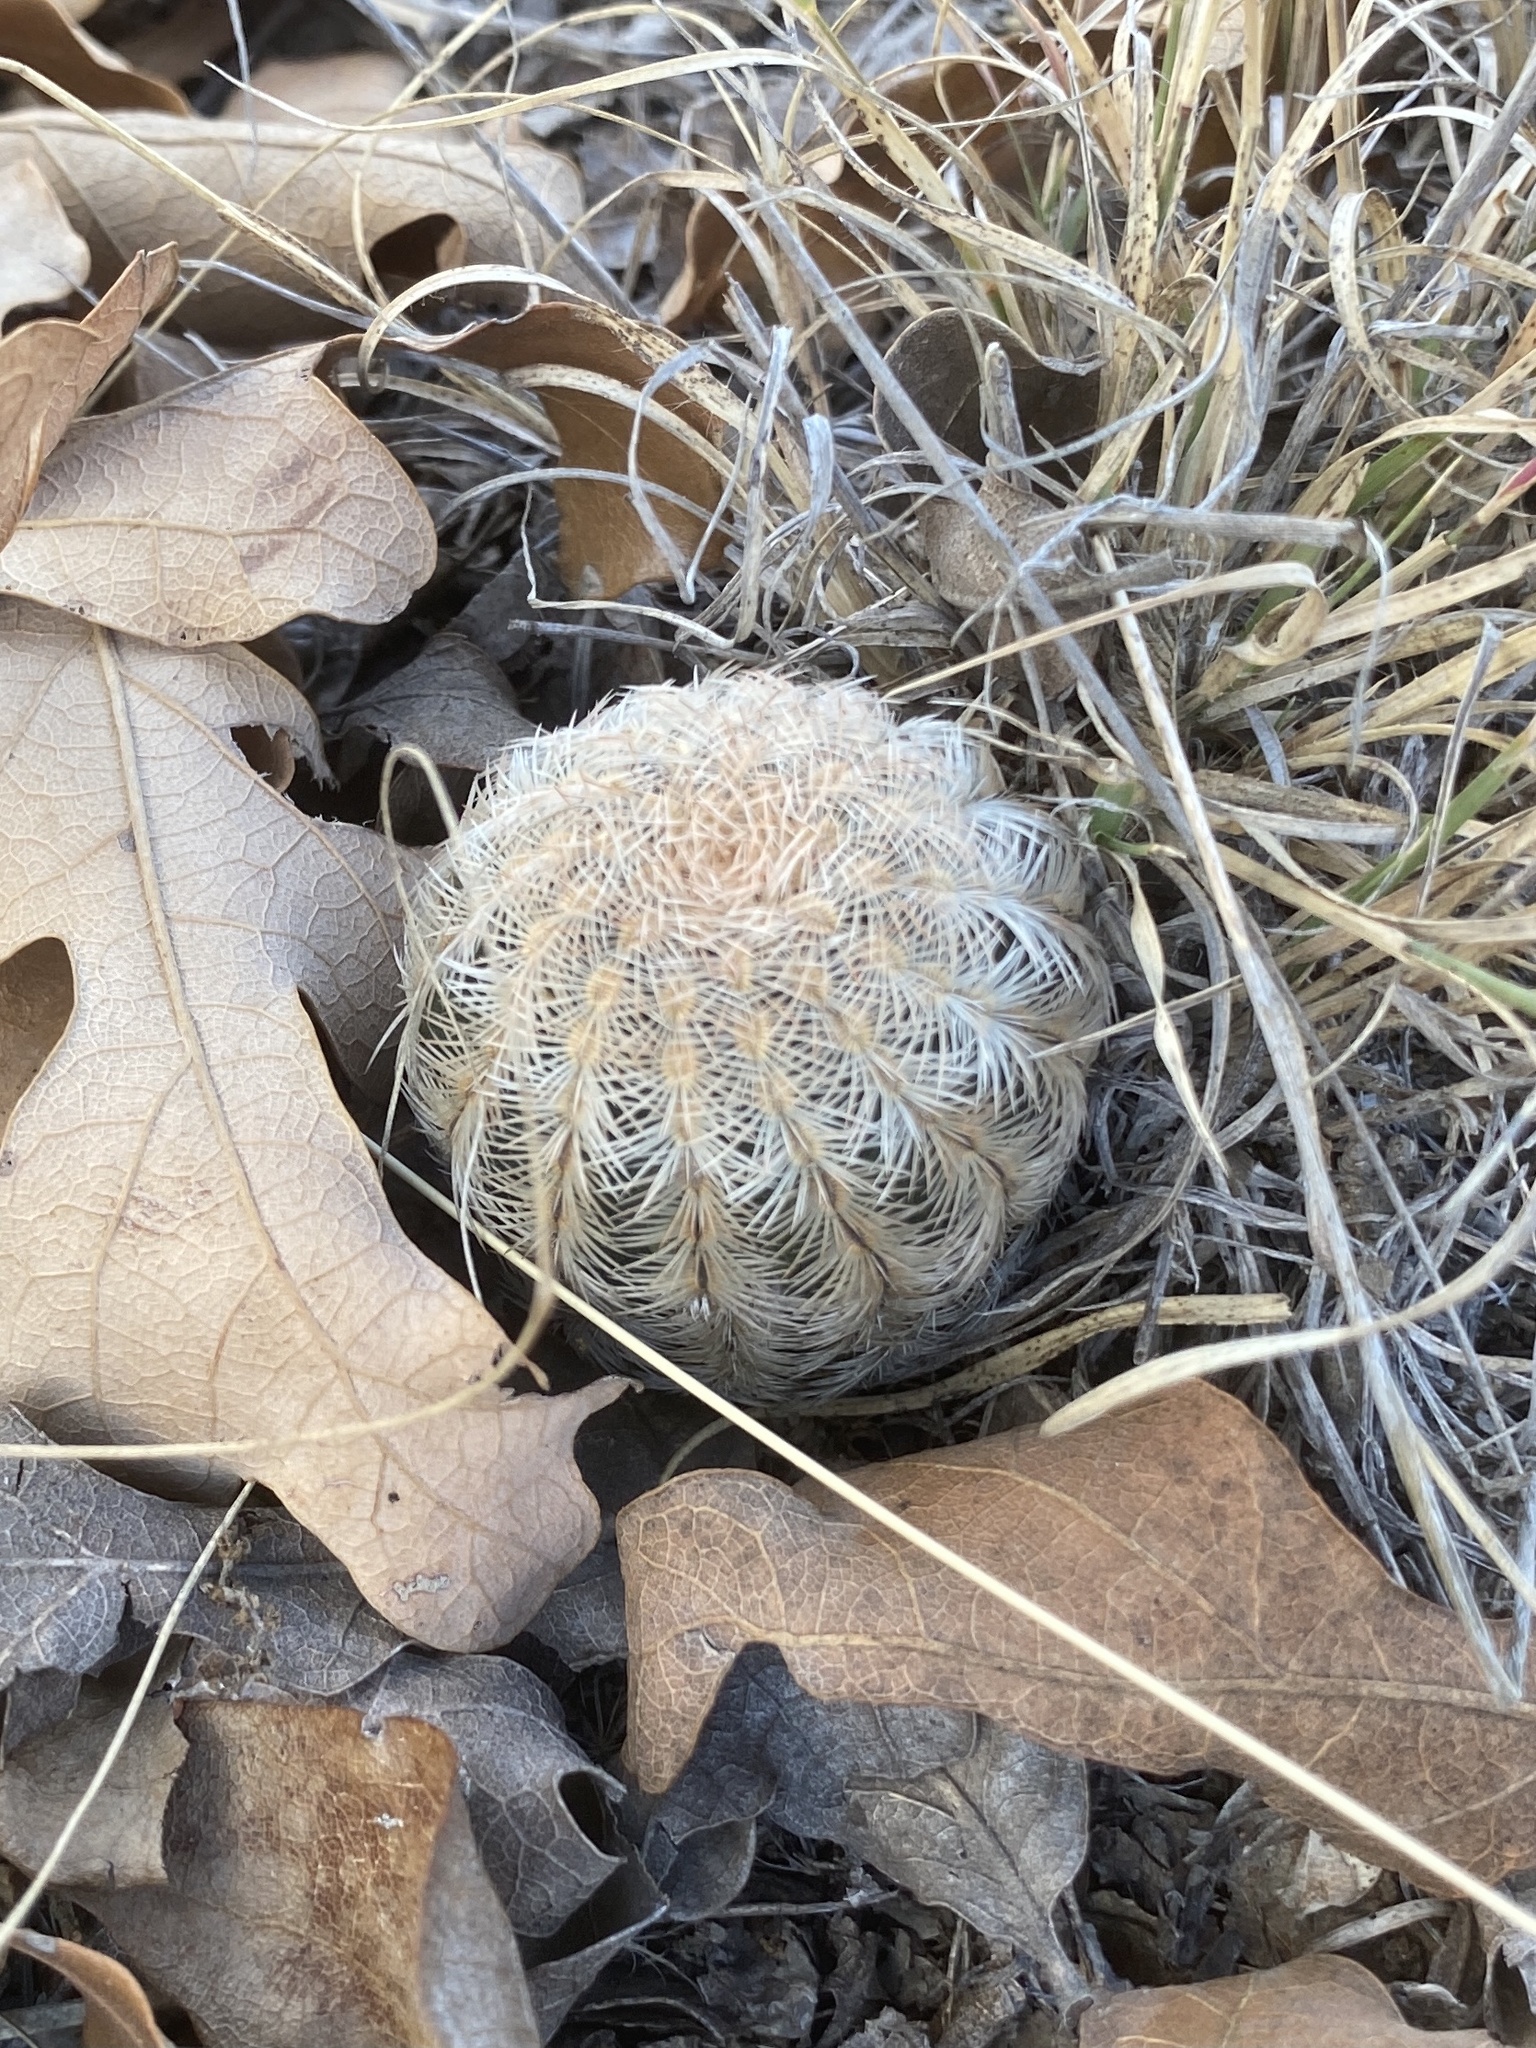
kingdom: Plantae
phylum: Tracheophyta
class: Magnoliopsida
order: Caryophyllales
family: Cactaceae
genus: Echinocereus
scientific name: Echinocereus reichenbachii
